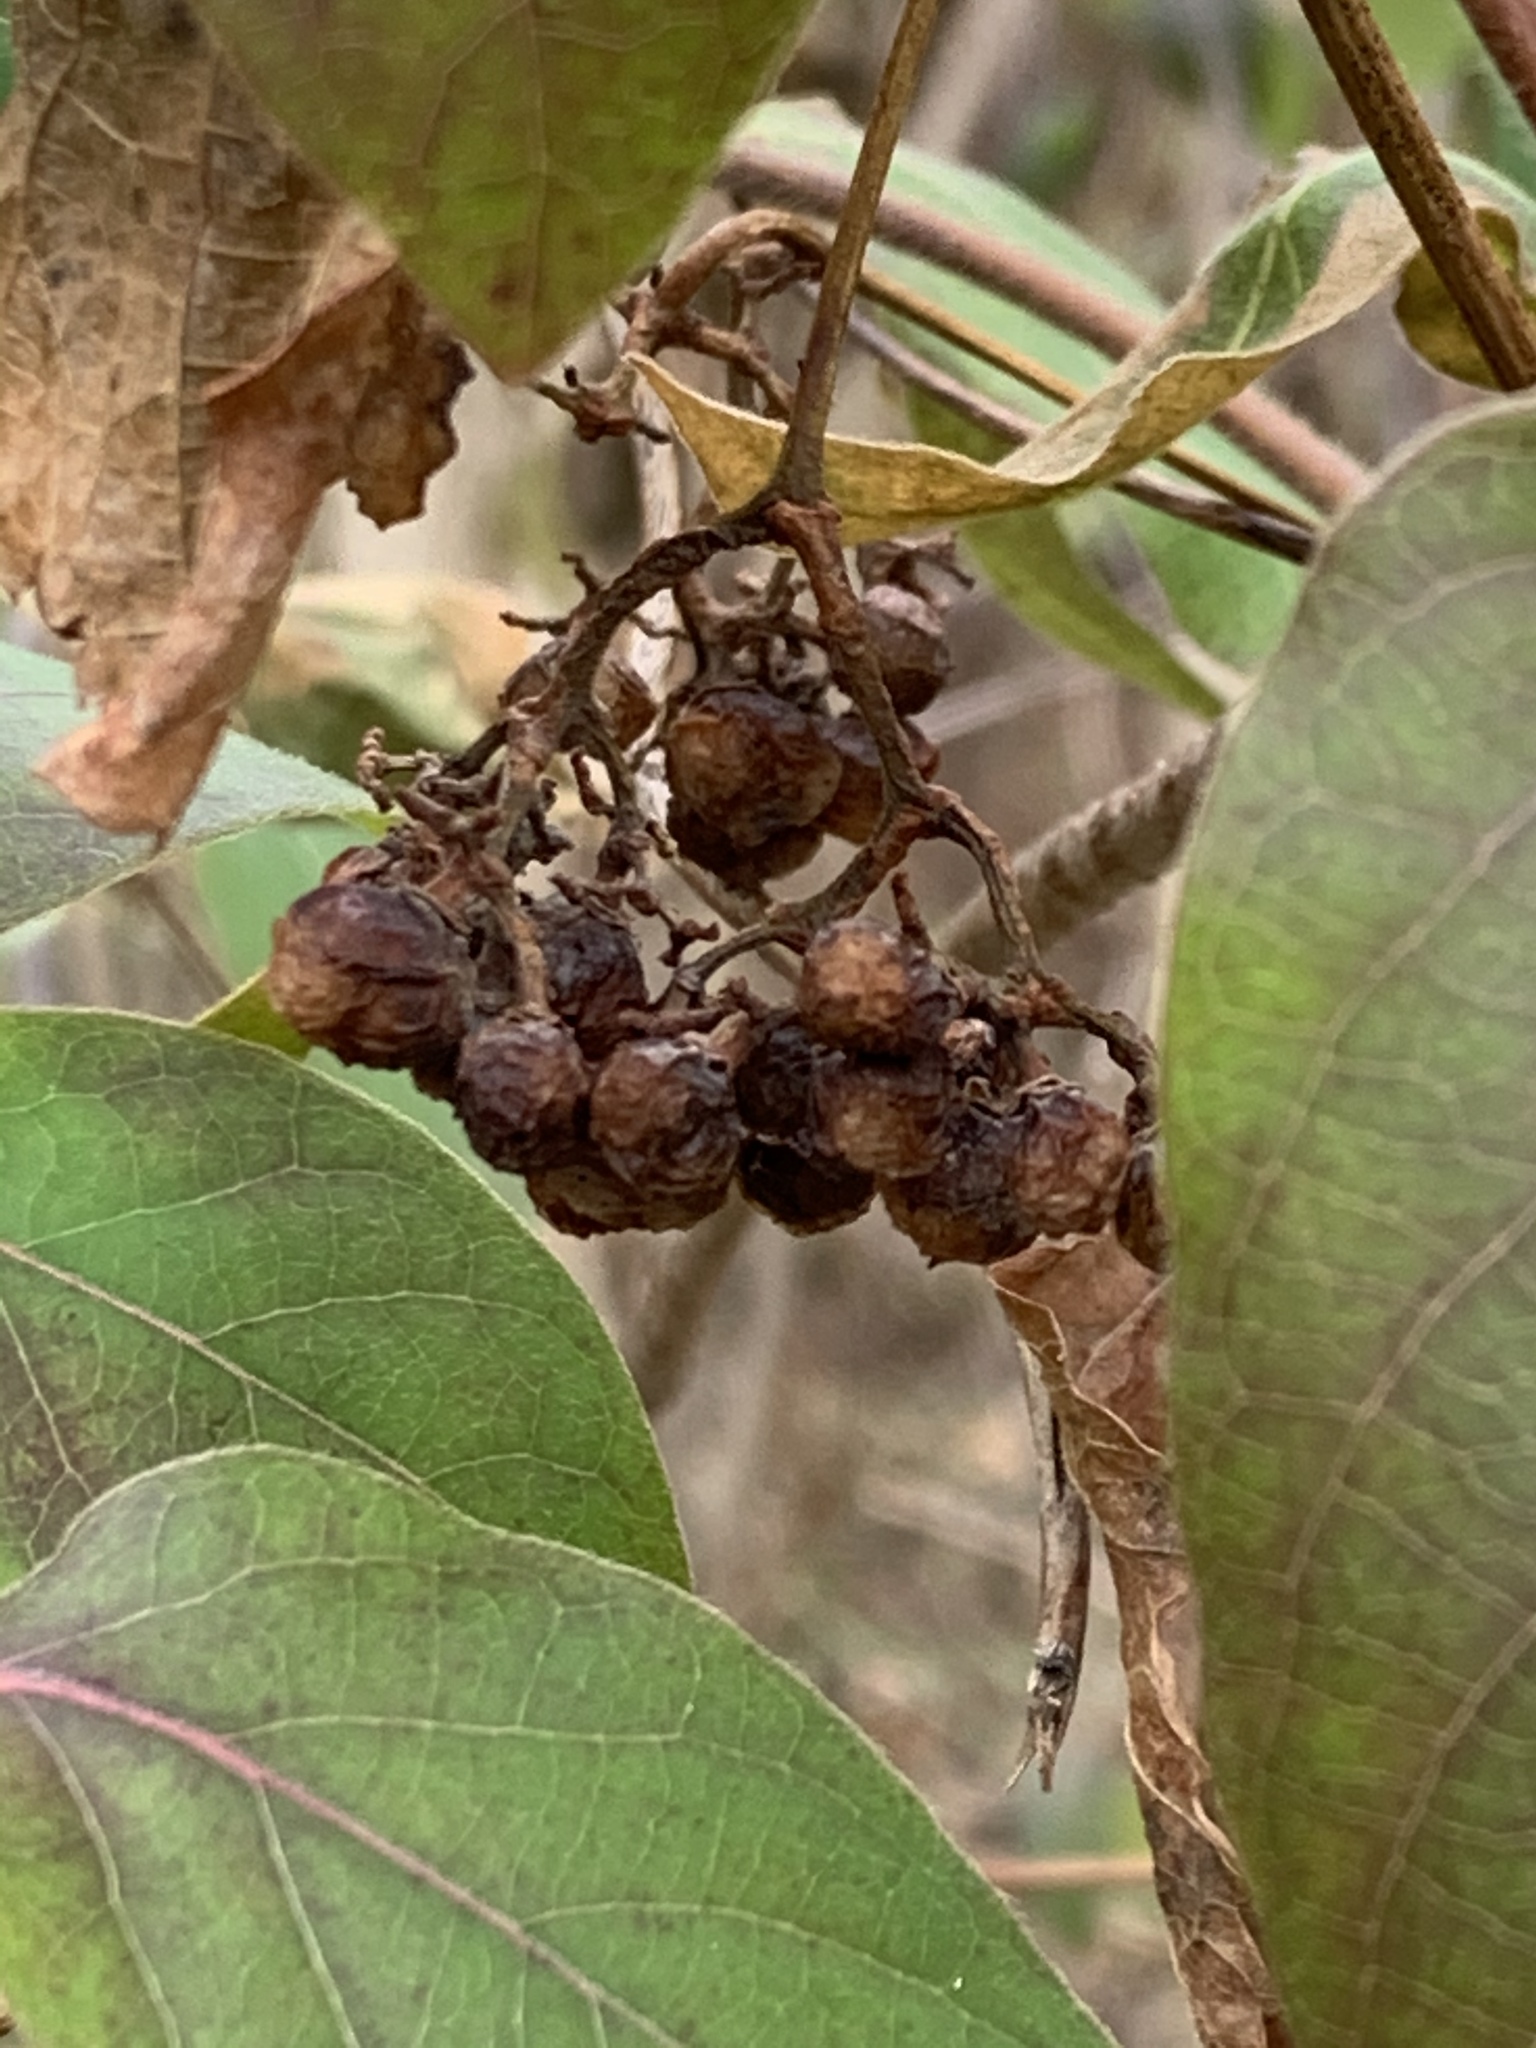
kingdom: Plantae
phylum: Tracheophyta
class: Magnoliopsida
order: Vitales
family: Vitaceae
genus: Ampelopsis
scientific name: Ampelopsis glandulosa
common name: Amur peppervine
